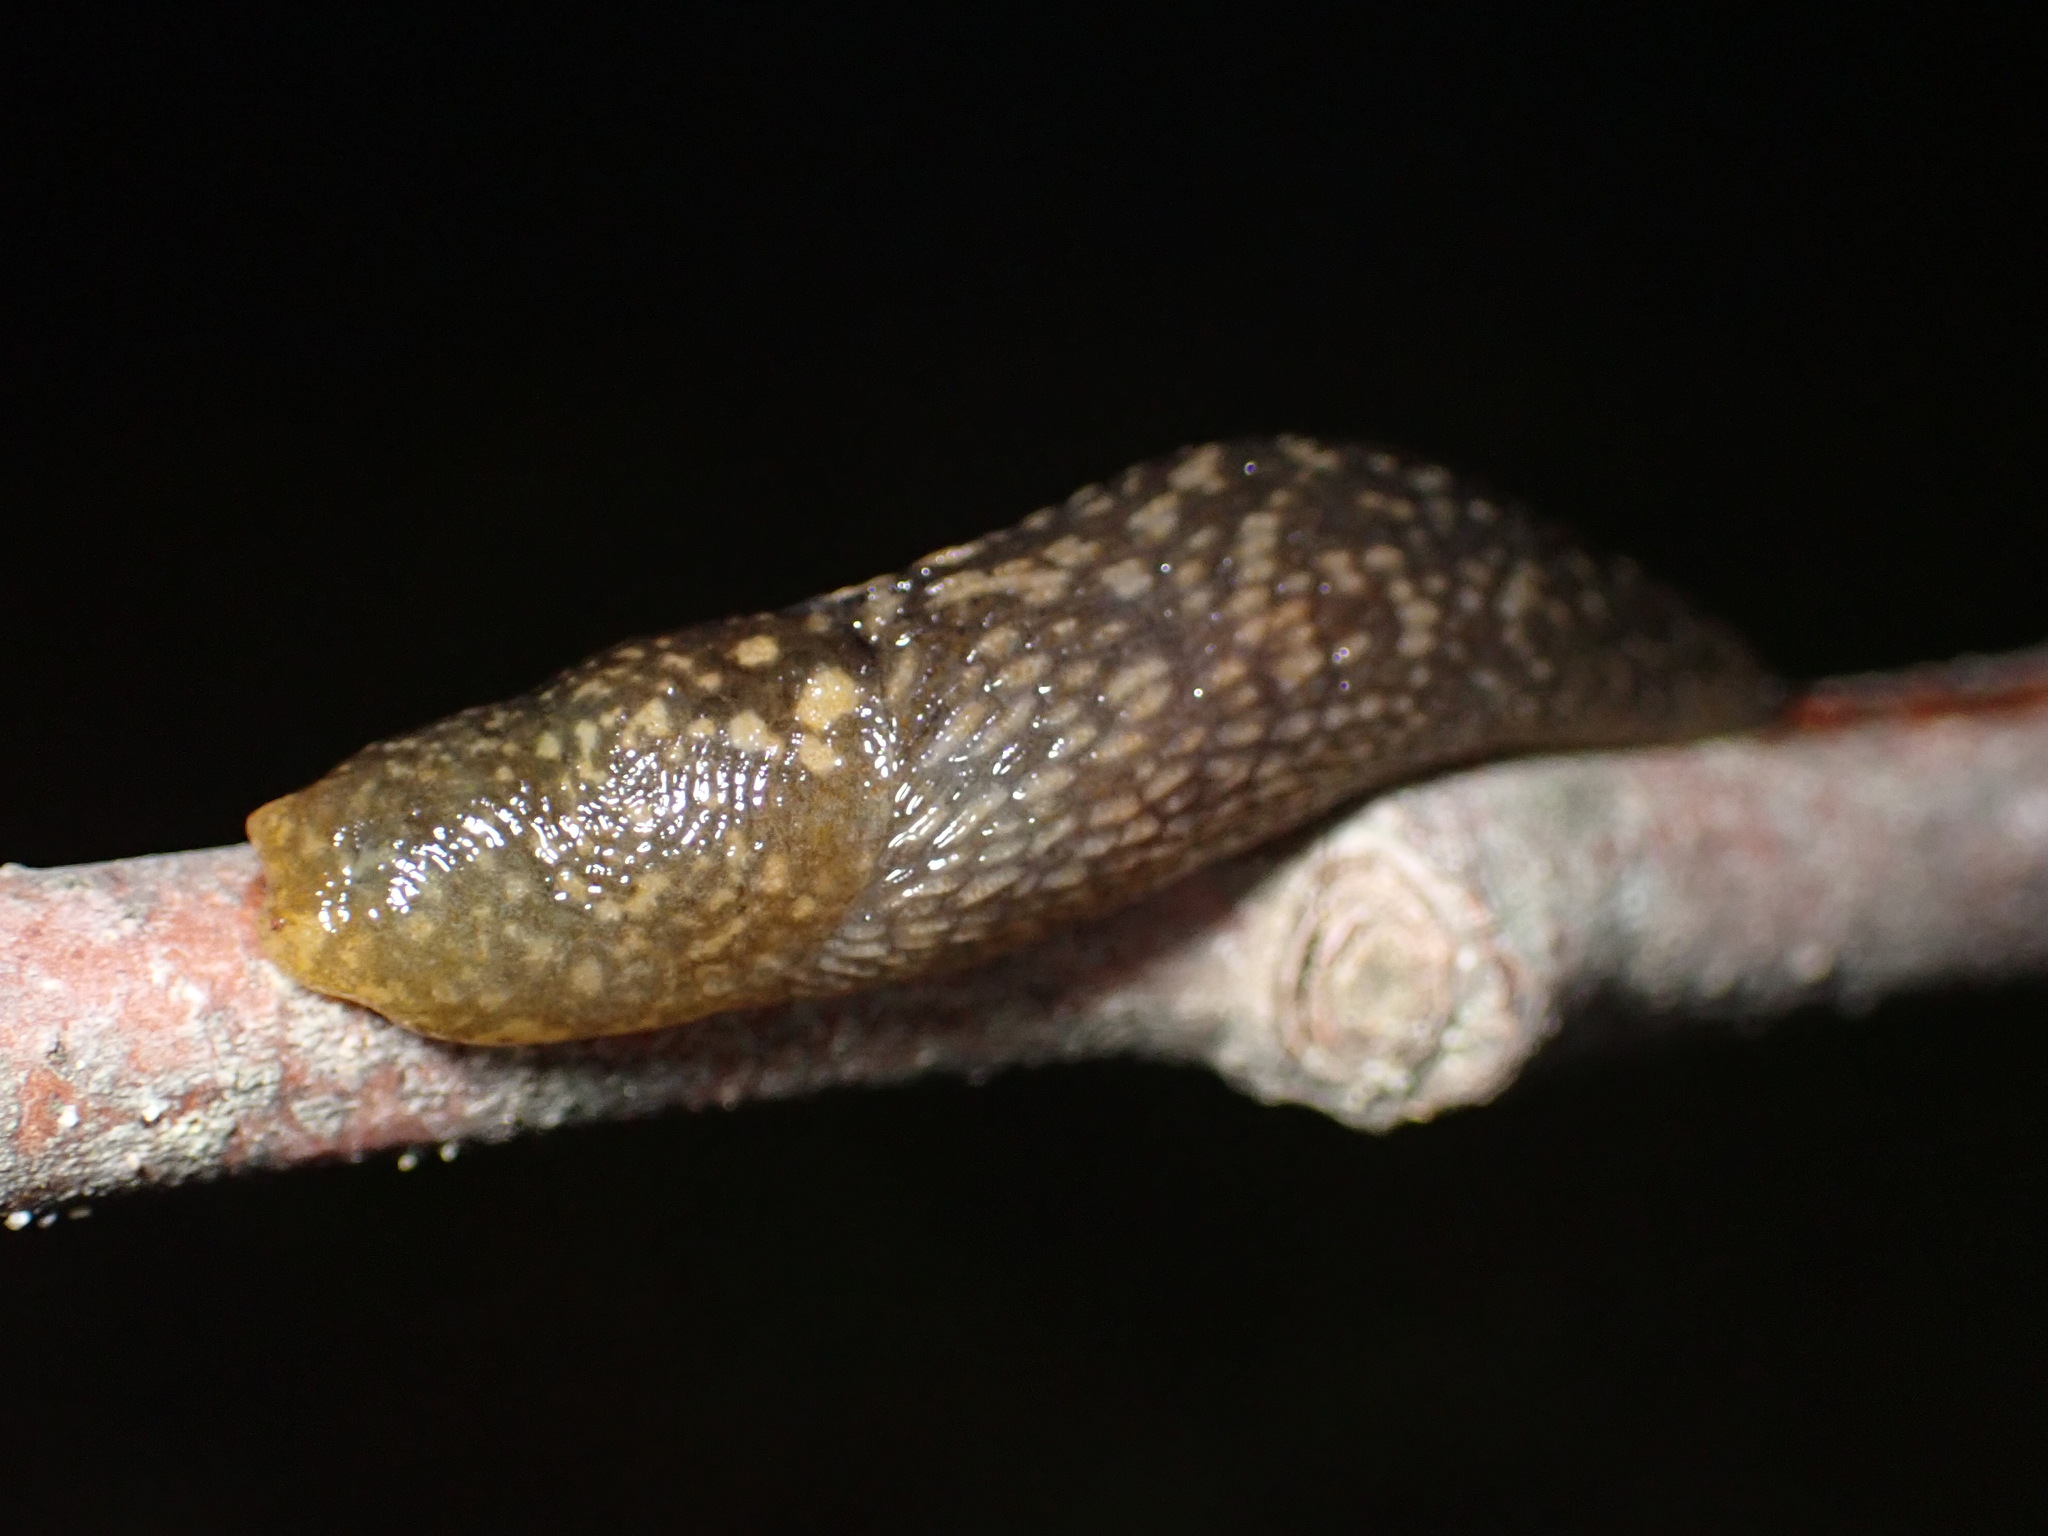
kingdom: Animalia
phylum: Mollusca
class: Gastropoda
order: Stylommatophora
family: Limacidae
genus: Limacus
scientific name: Limacus flavus
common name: Yellow gardenslug
